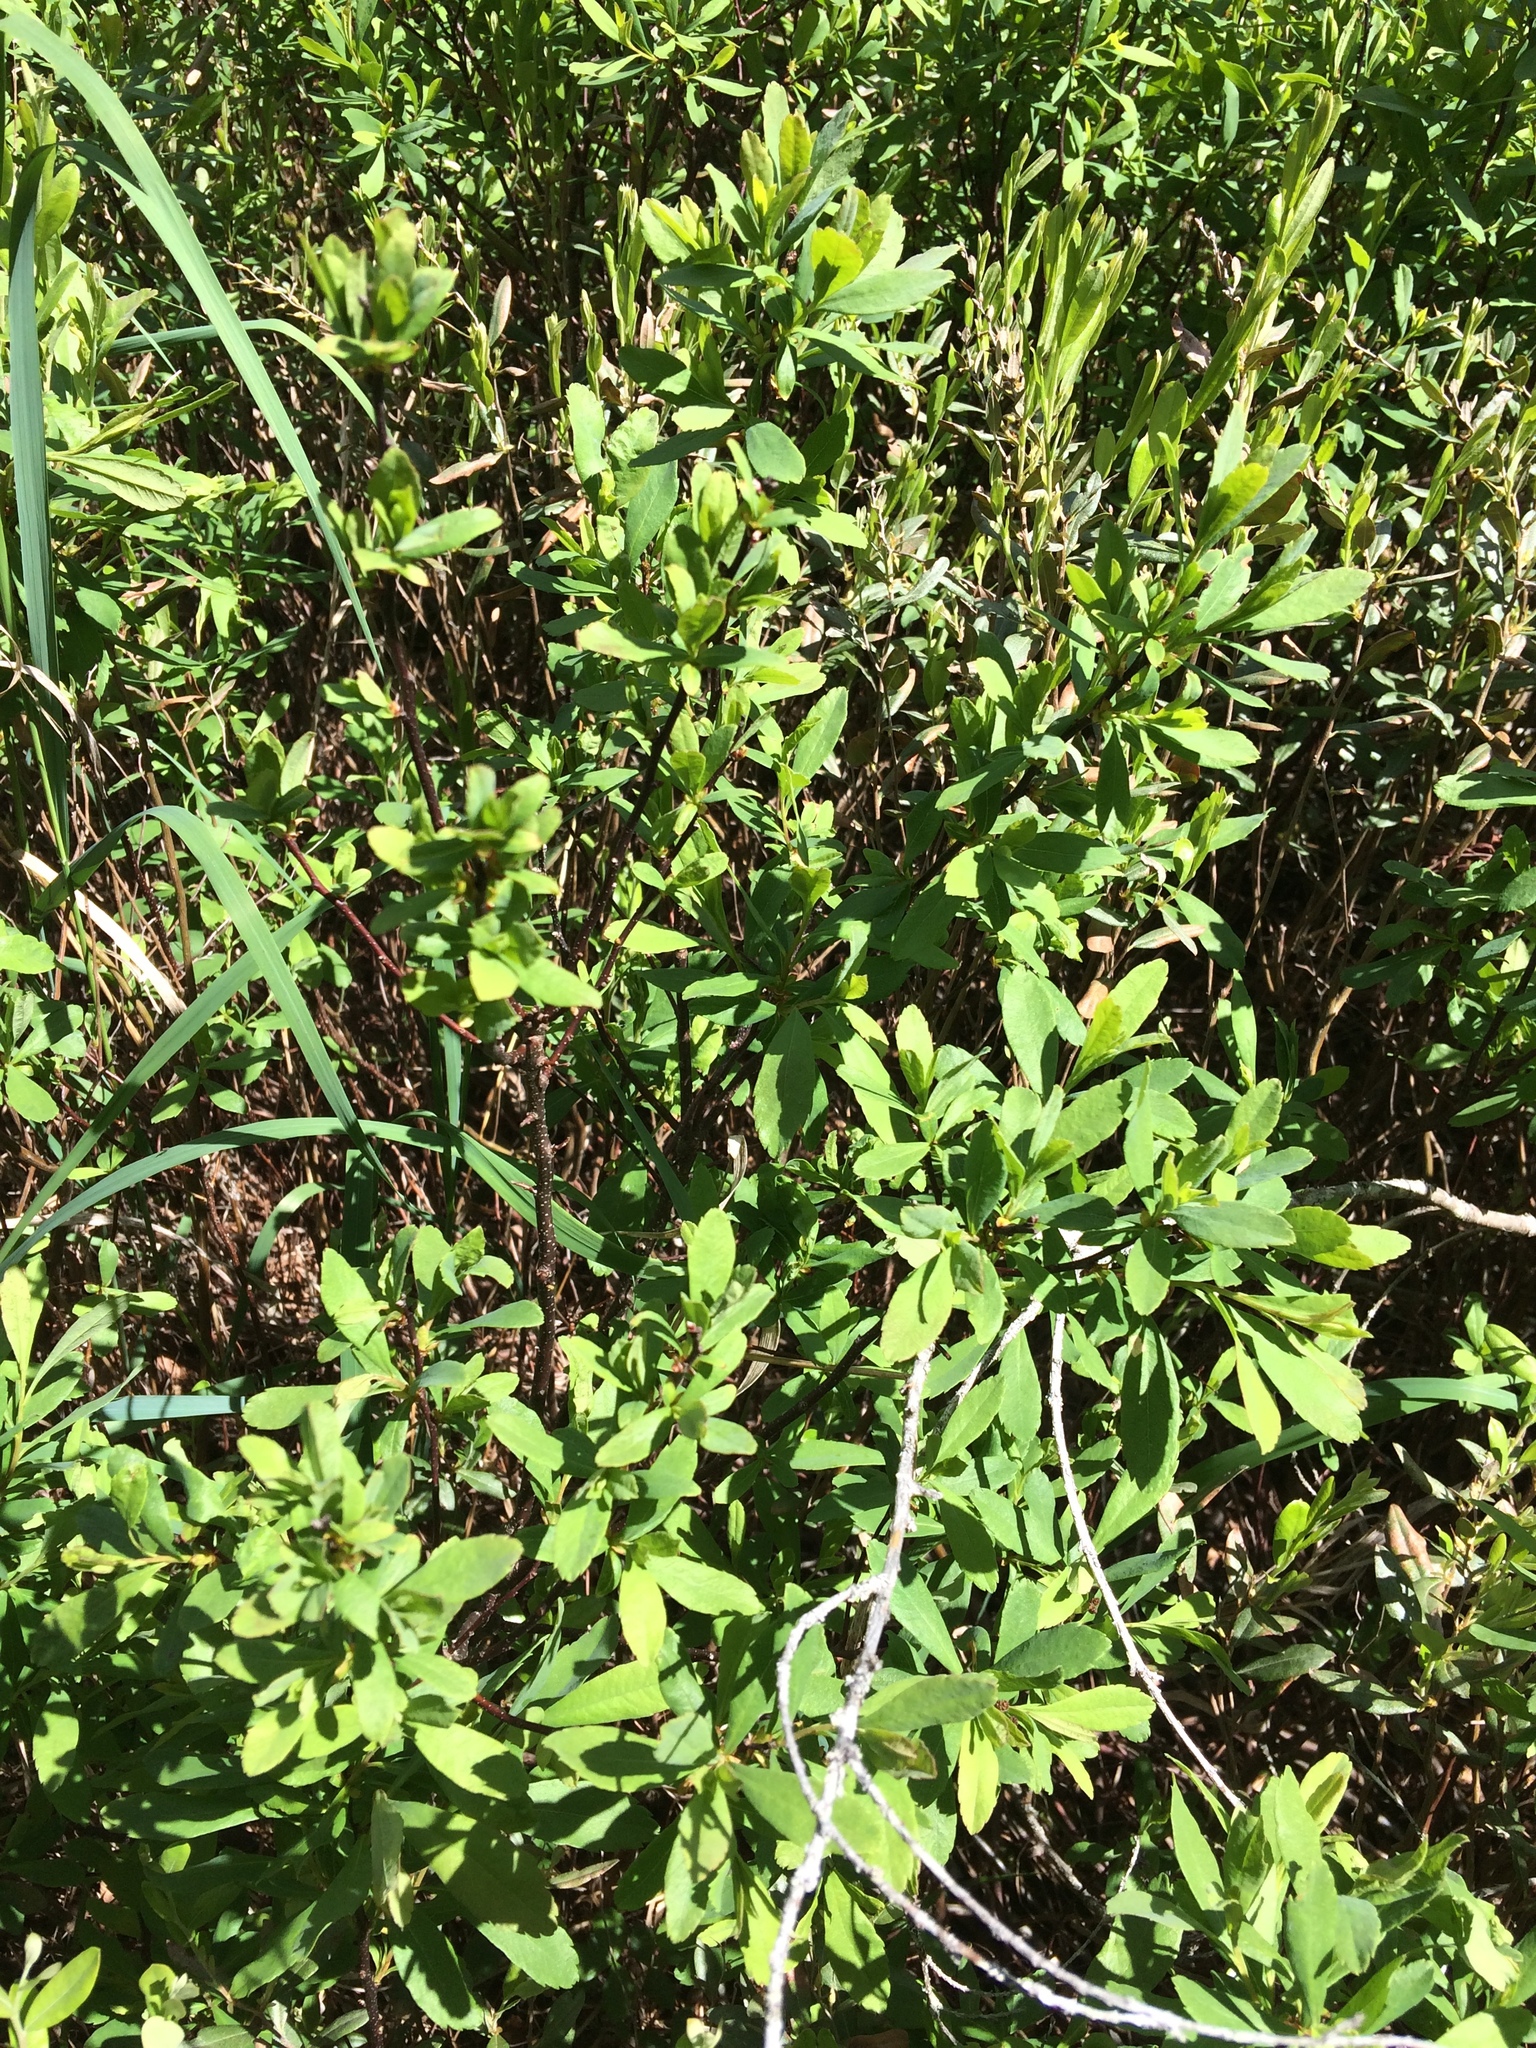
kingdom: Plantae
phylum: Tracheophyta
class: Magnoliopsida
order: Fagales
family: Myricaceae
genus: Myrica
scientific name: Myrica gale
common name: Sweet gale
